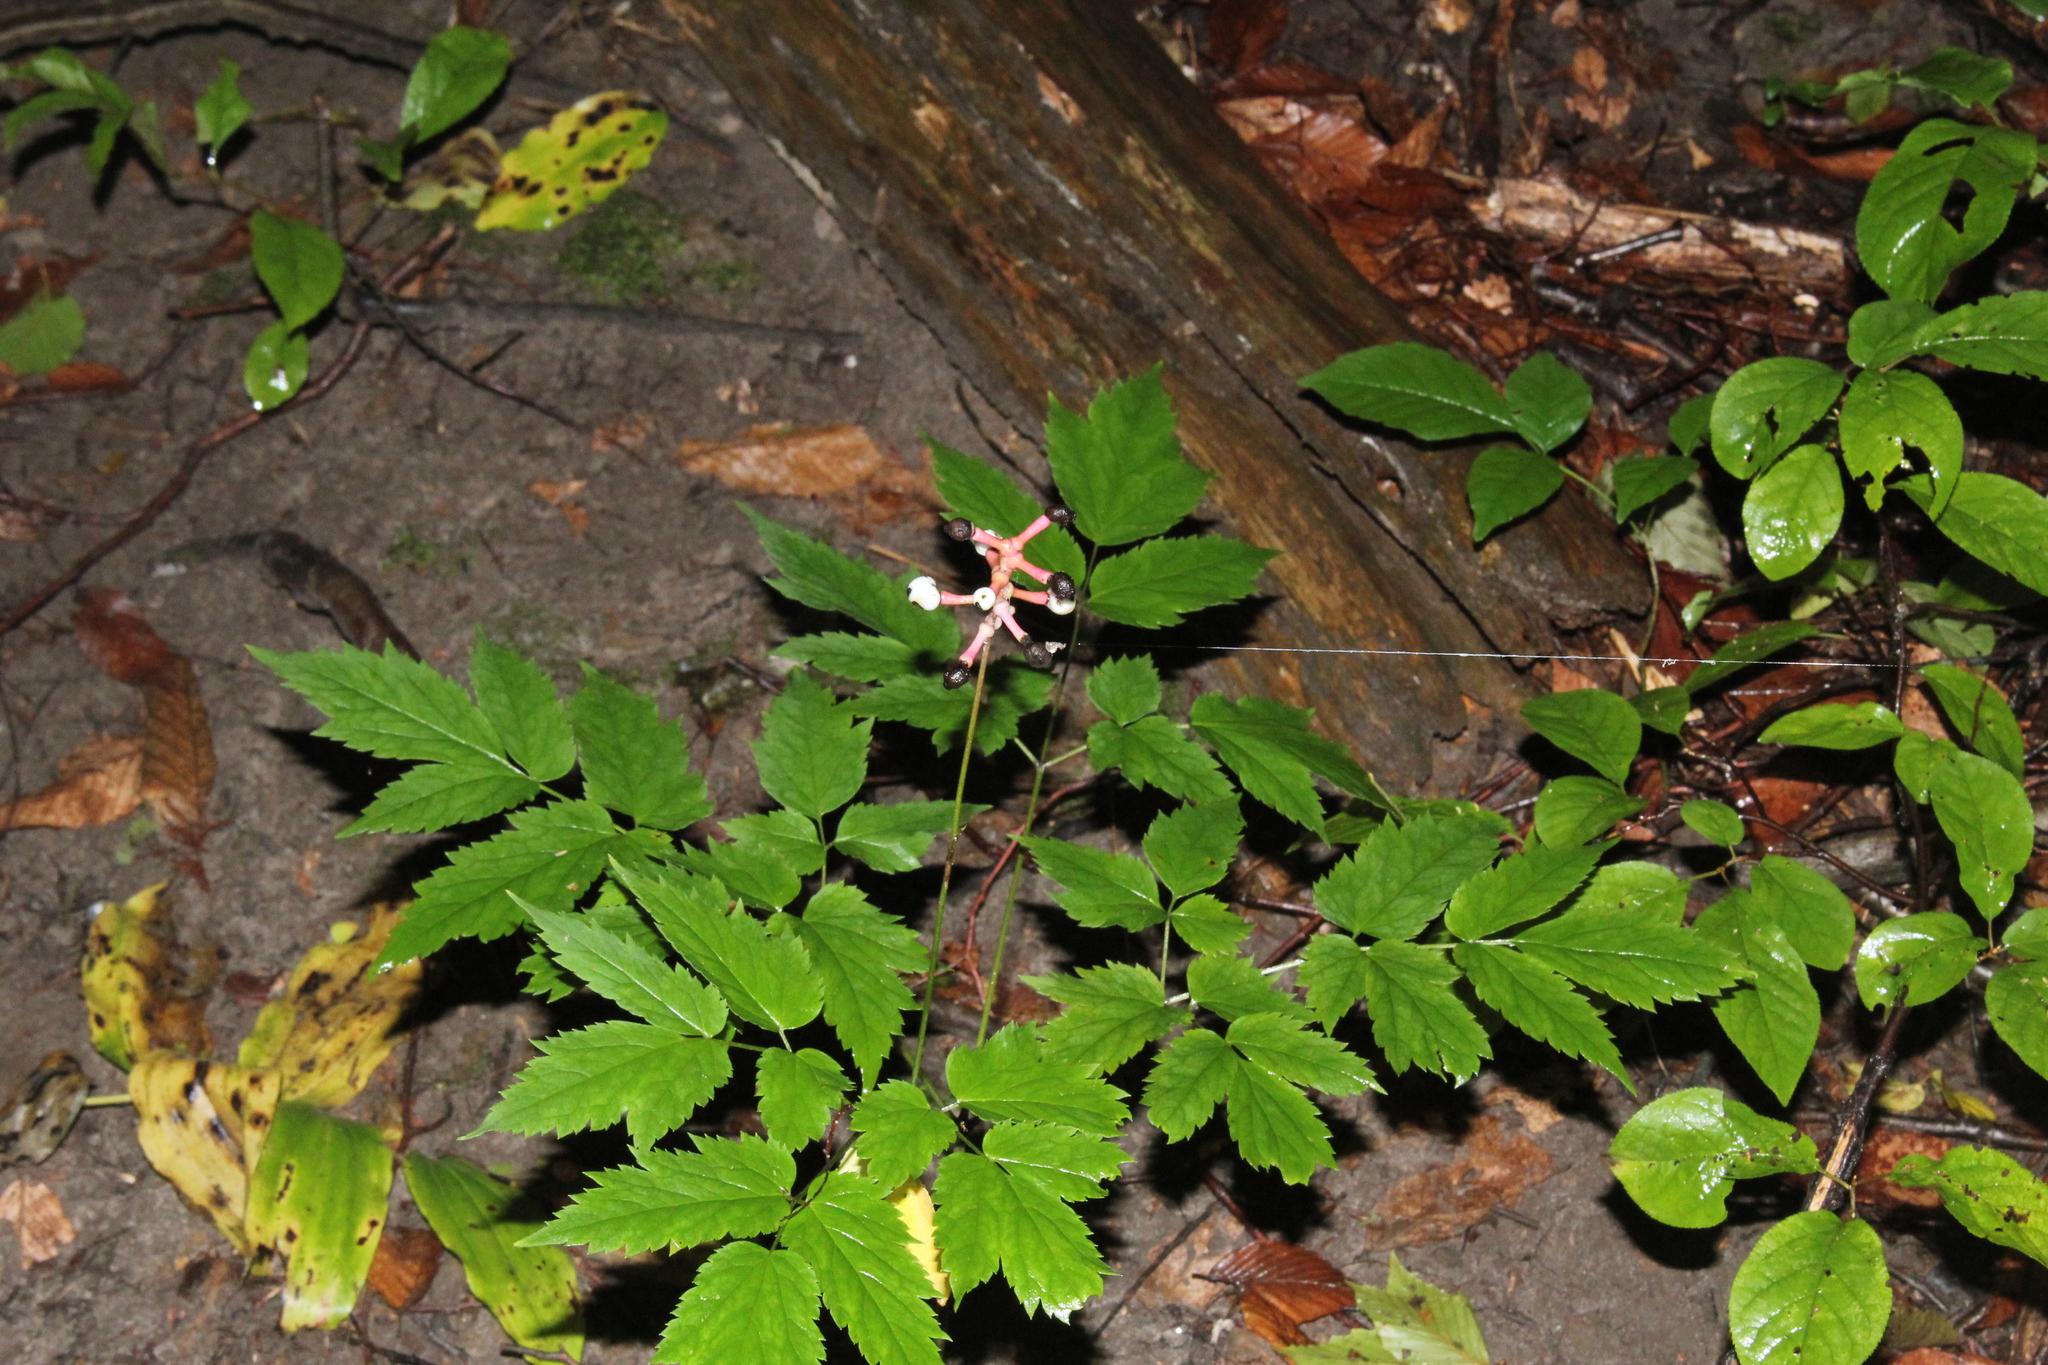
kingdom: Plantae
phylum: Tracheophyta
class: Magnoliopsida
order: Ranunculales
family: Ranunculaceae
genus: Actaea
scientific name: Actaea pachypoda
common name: Doll's-eyes
